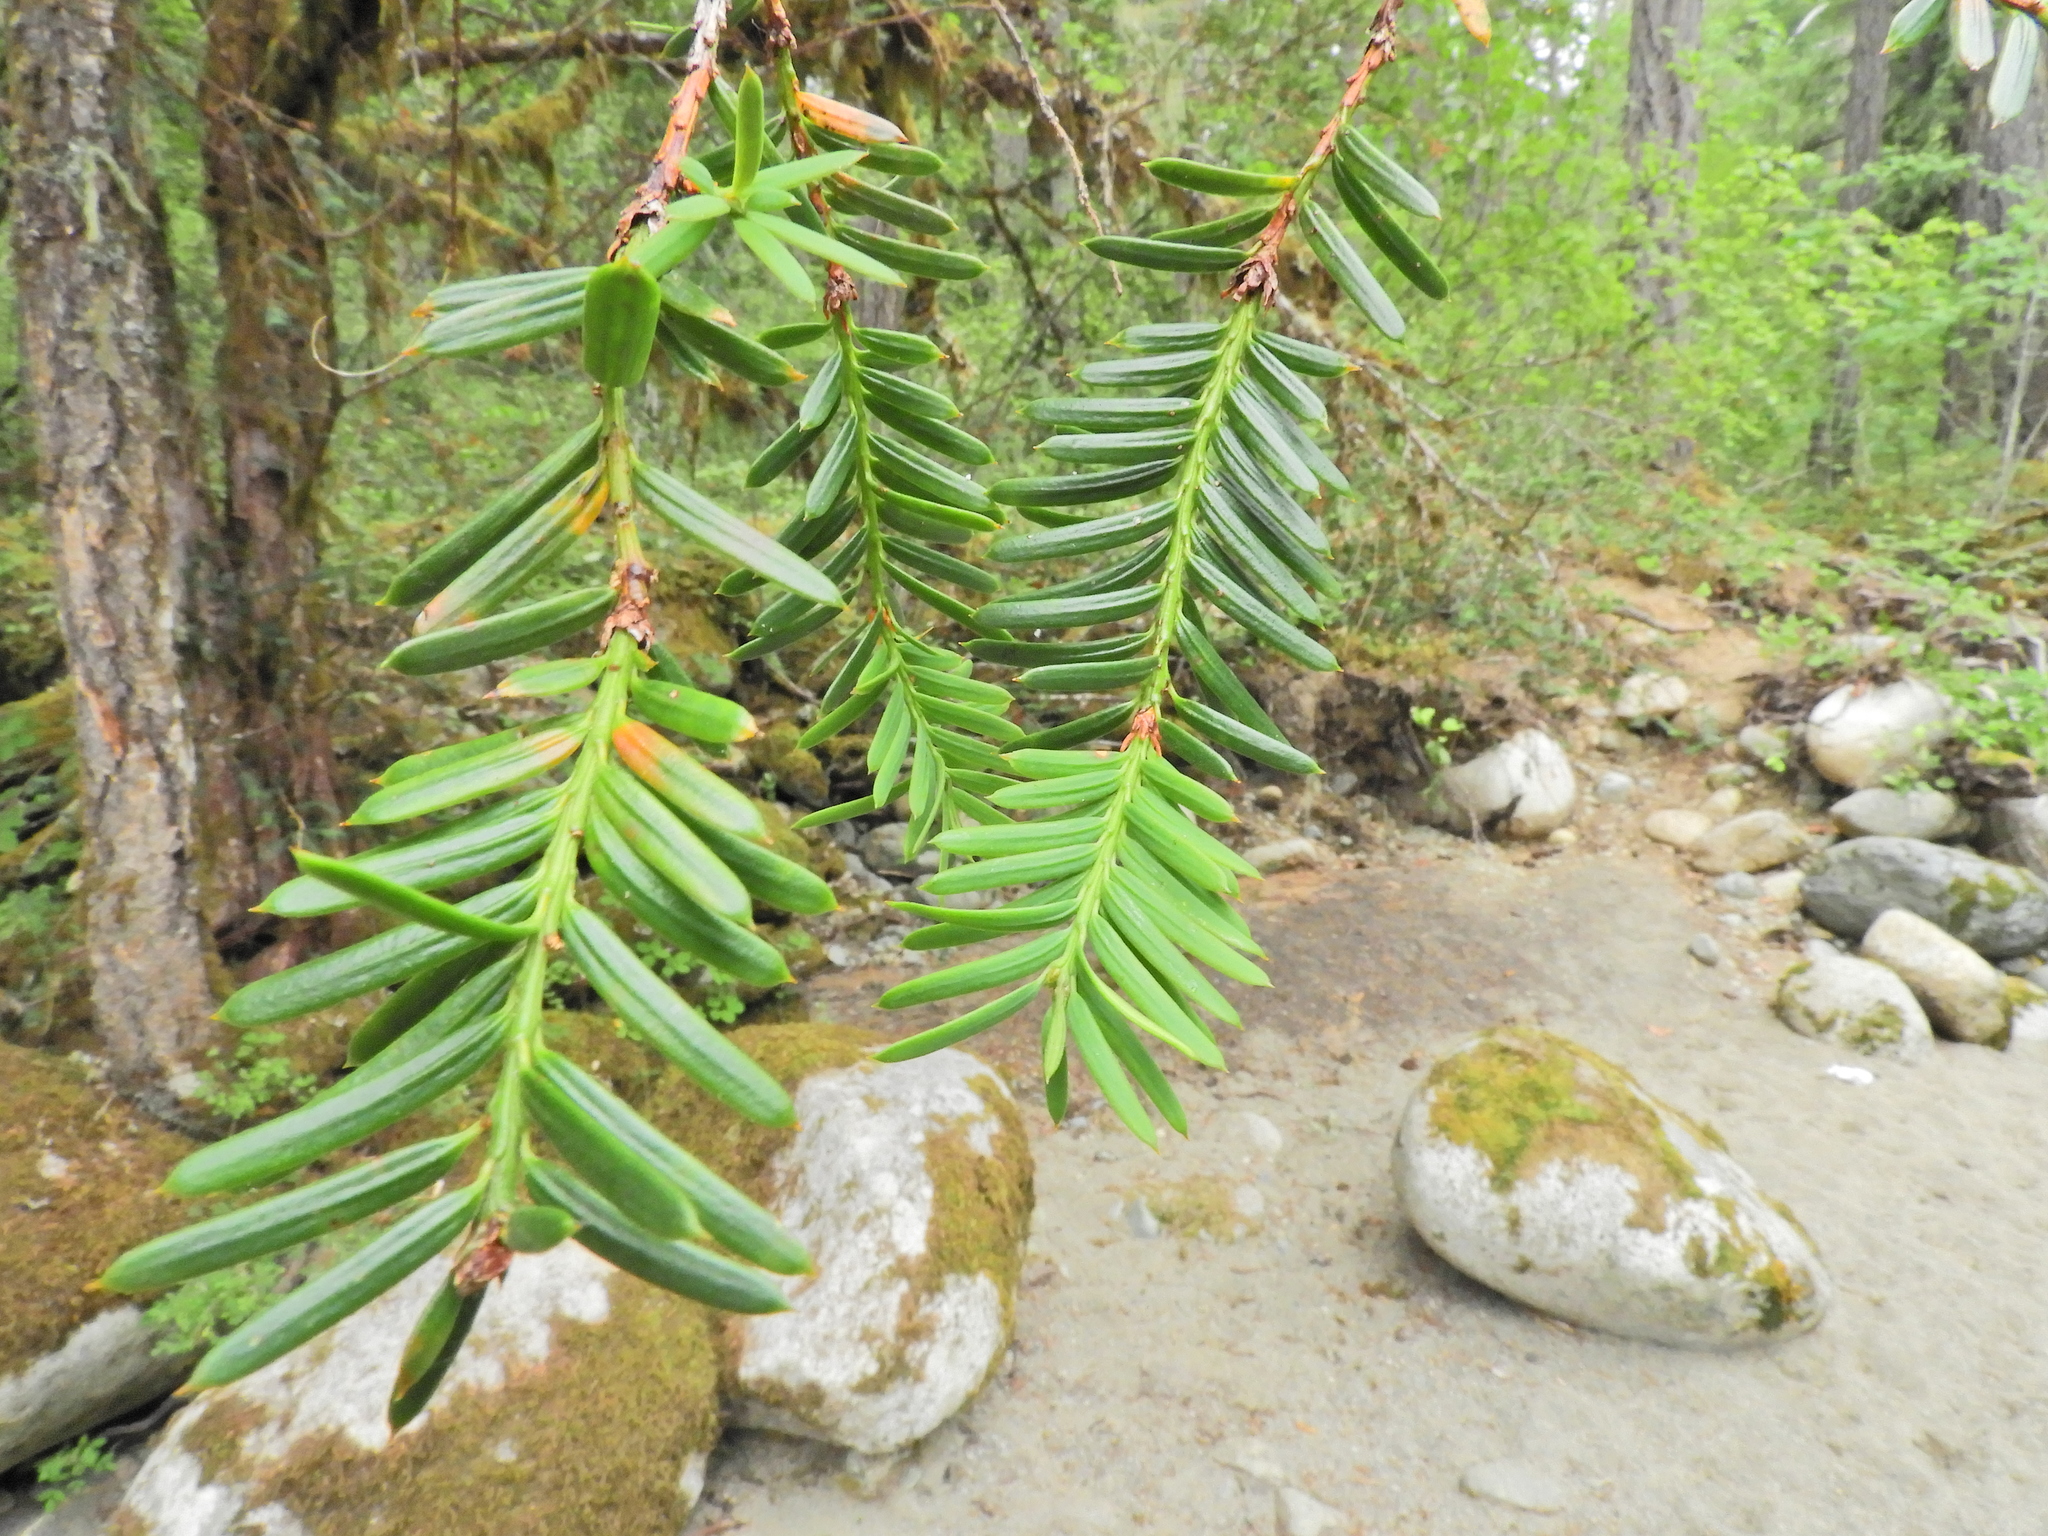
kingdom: Plantae
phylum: Tracheophyta
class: Pinopsida
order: Pinales
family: Taxaceae
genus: Taxus
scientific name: Taxus brevifolia
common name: Pacific yew
